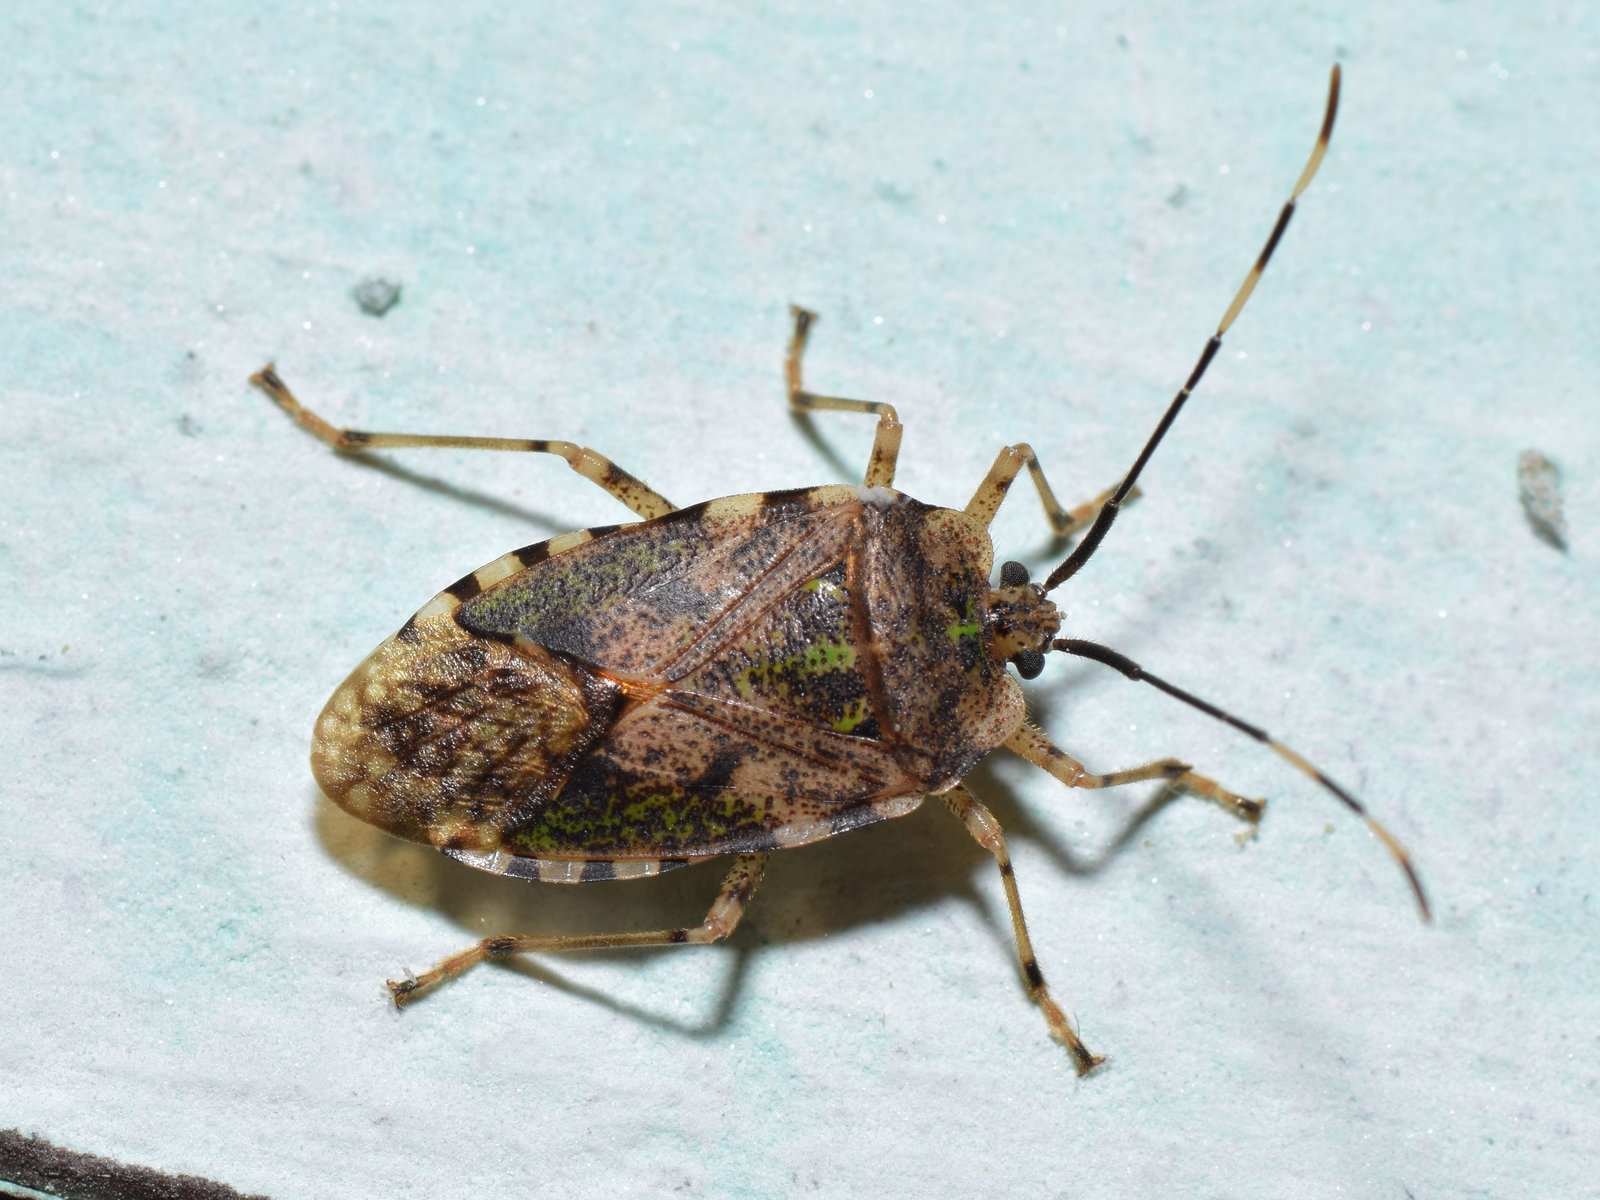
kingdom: Animalia
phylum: Arthropoda
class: Insecta
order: Hemiptera
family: Urostylididae
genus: Urochela
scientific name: Urochela
